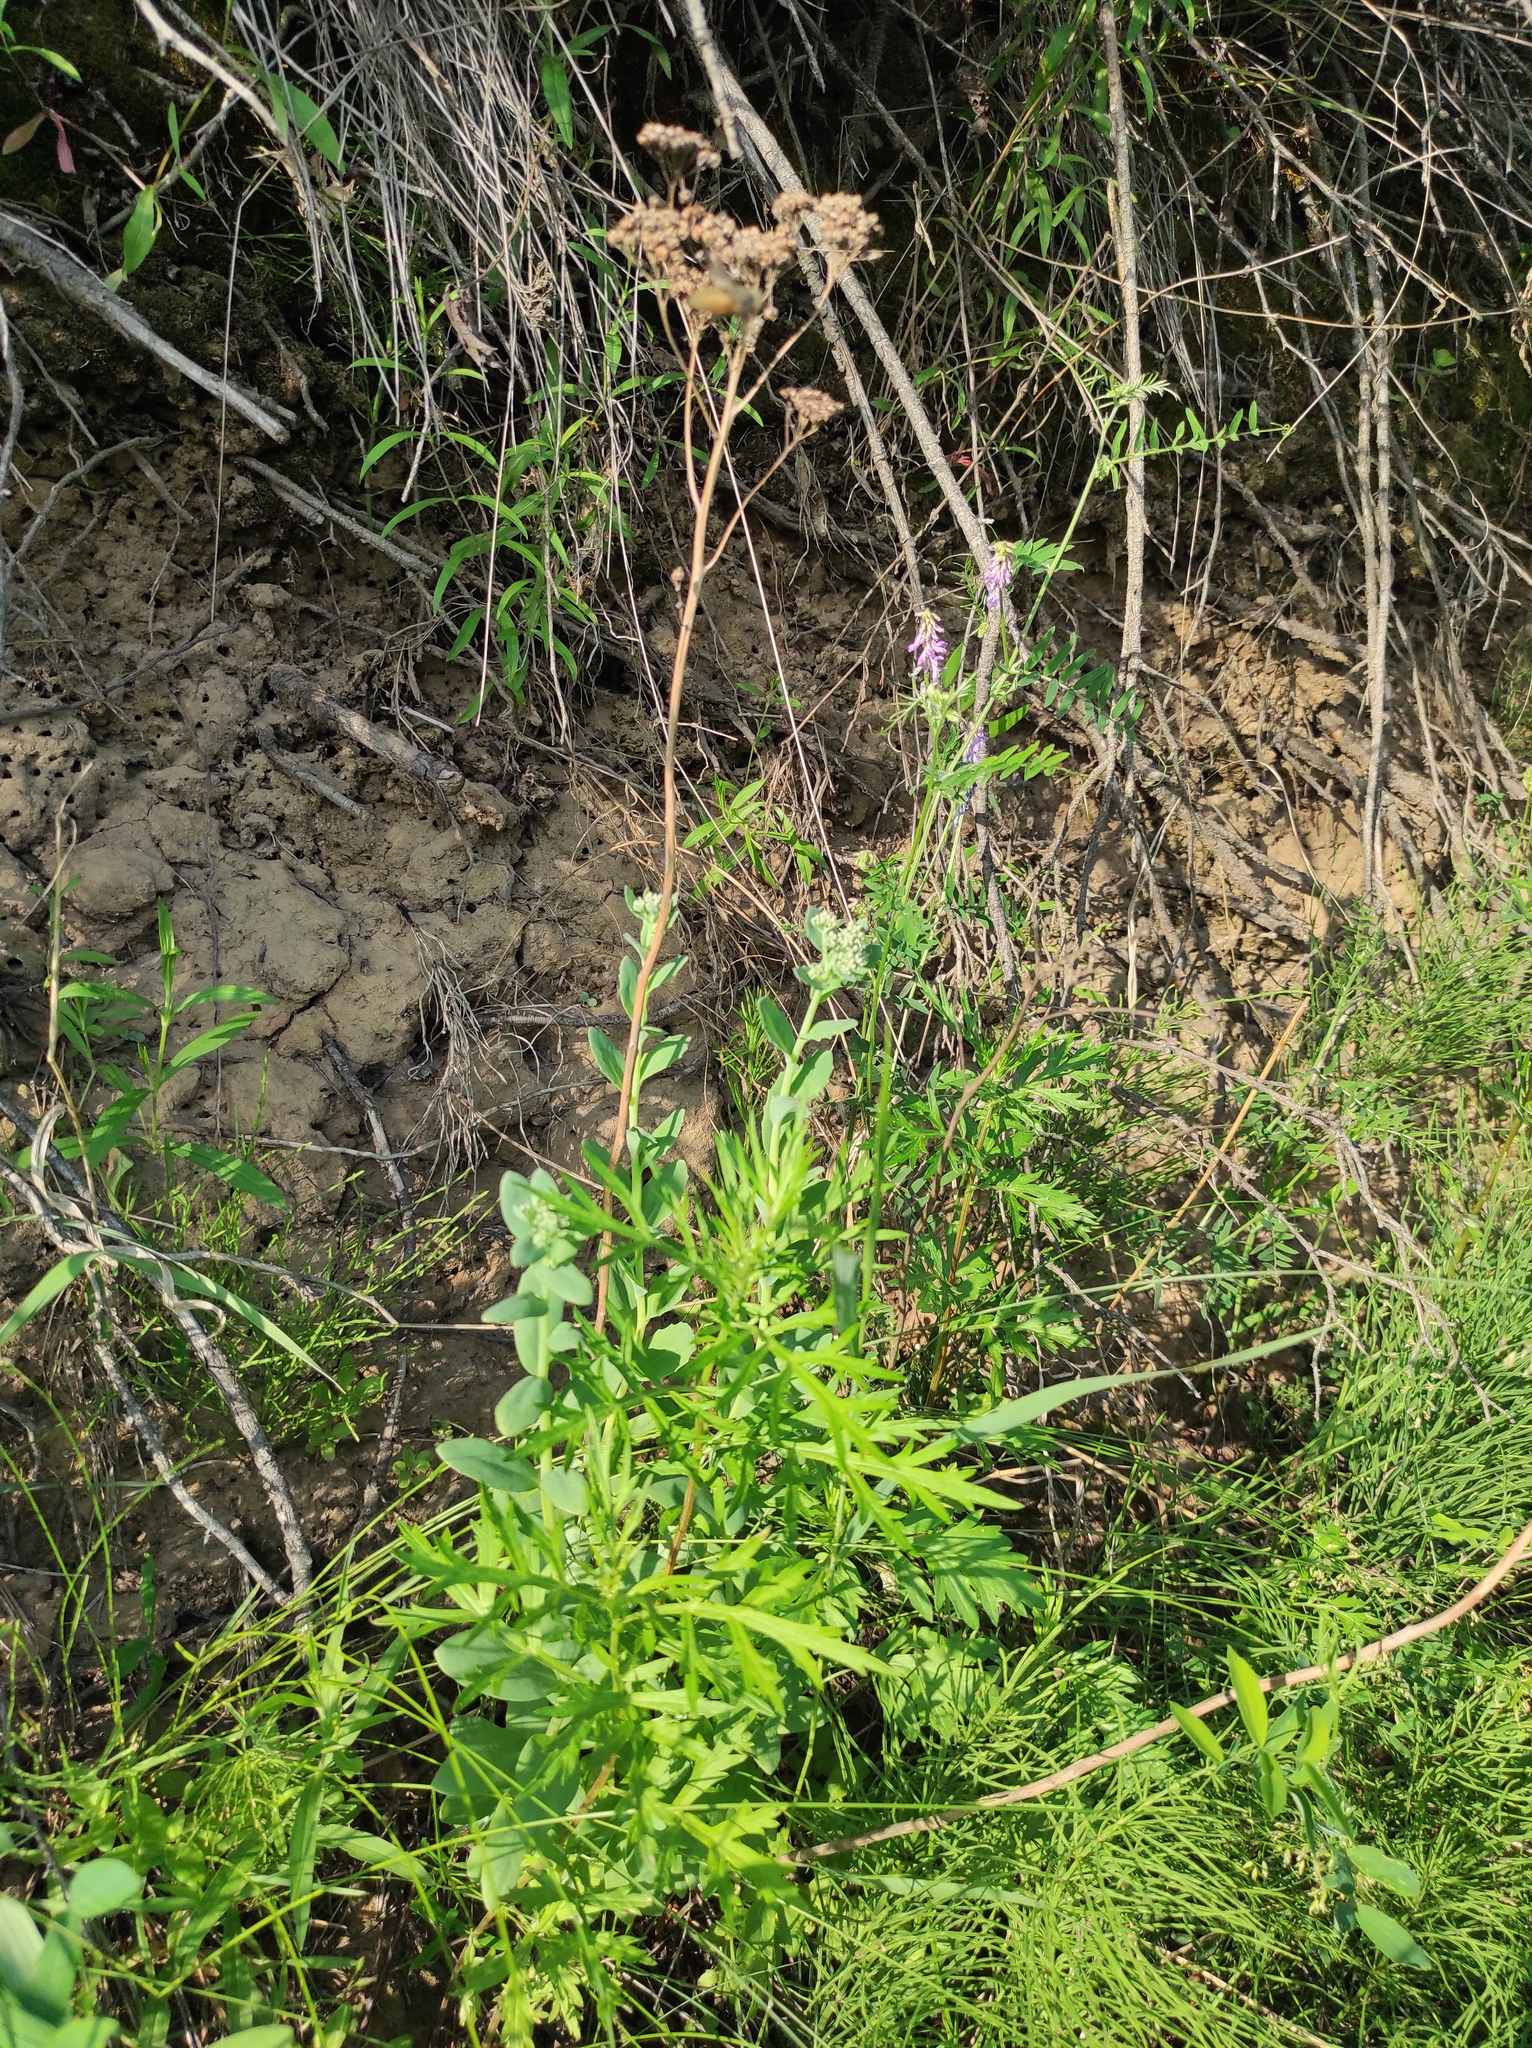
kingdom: Plantae
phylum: Tracheophyta
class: Magnoliopsida
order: Saxifragales
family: Crassulaceae
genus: Hylotelephium
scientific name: Hylotelephium telephium
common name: Live-forever
